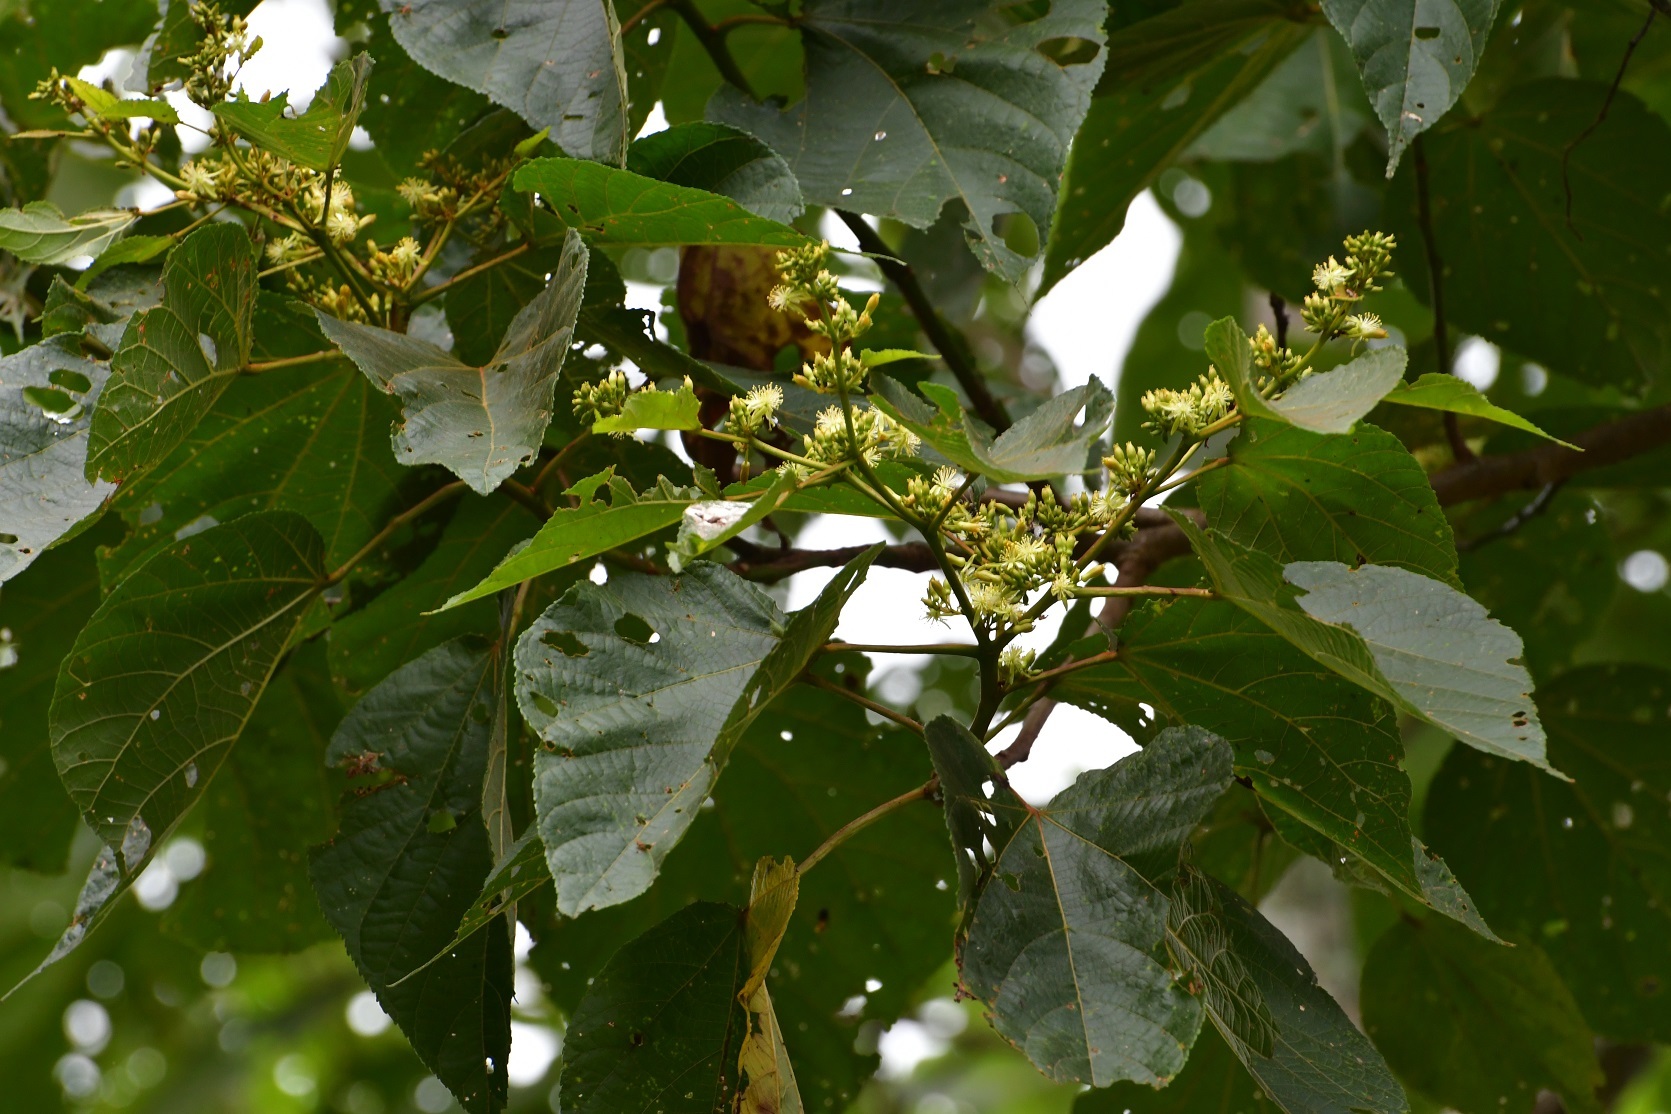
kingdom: Plantae
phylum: Tracheophyta
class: Magnoliopsida
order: Malvales
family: Malvaceae
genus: Heliocarpus
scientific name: Heliocarpus terebinthinaceus
